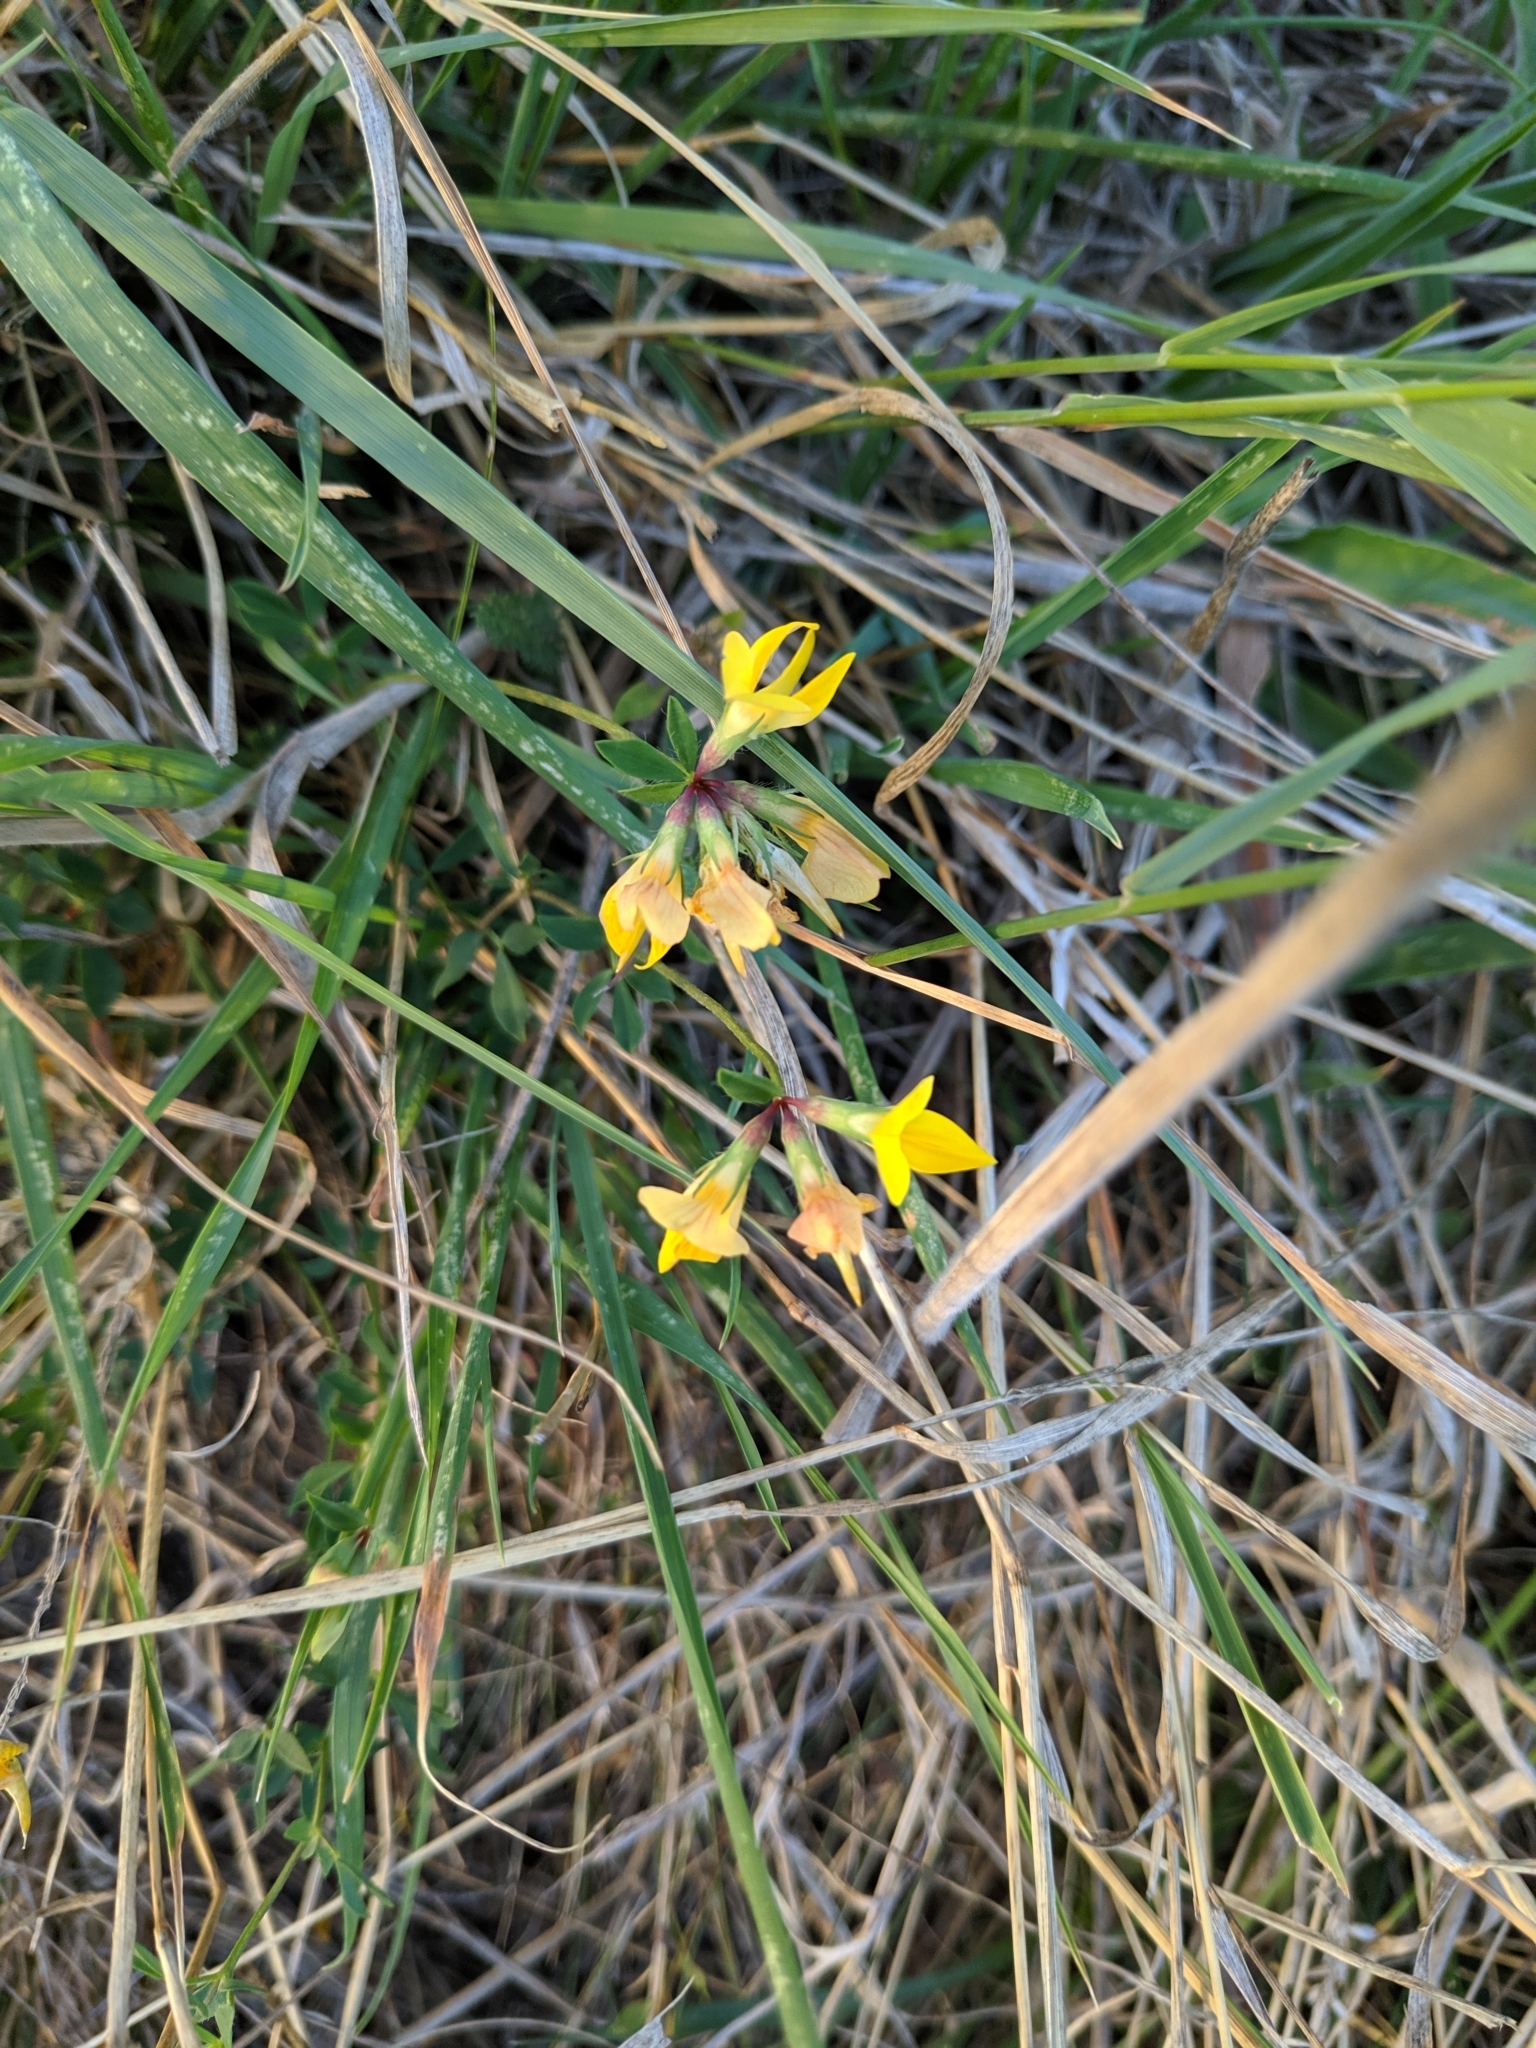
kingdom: Plantae
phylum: Tracheophyta
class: Magnoliopsida
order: Fabales
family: Fabaceae
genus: Lotus
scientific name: Lotus corniculatus
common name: Common bird's-foot-trefoil
